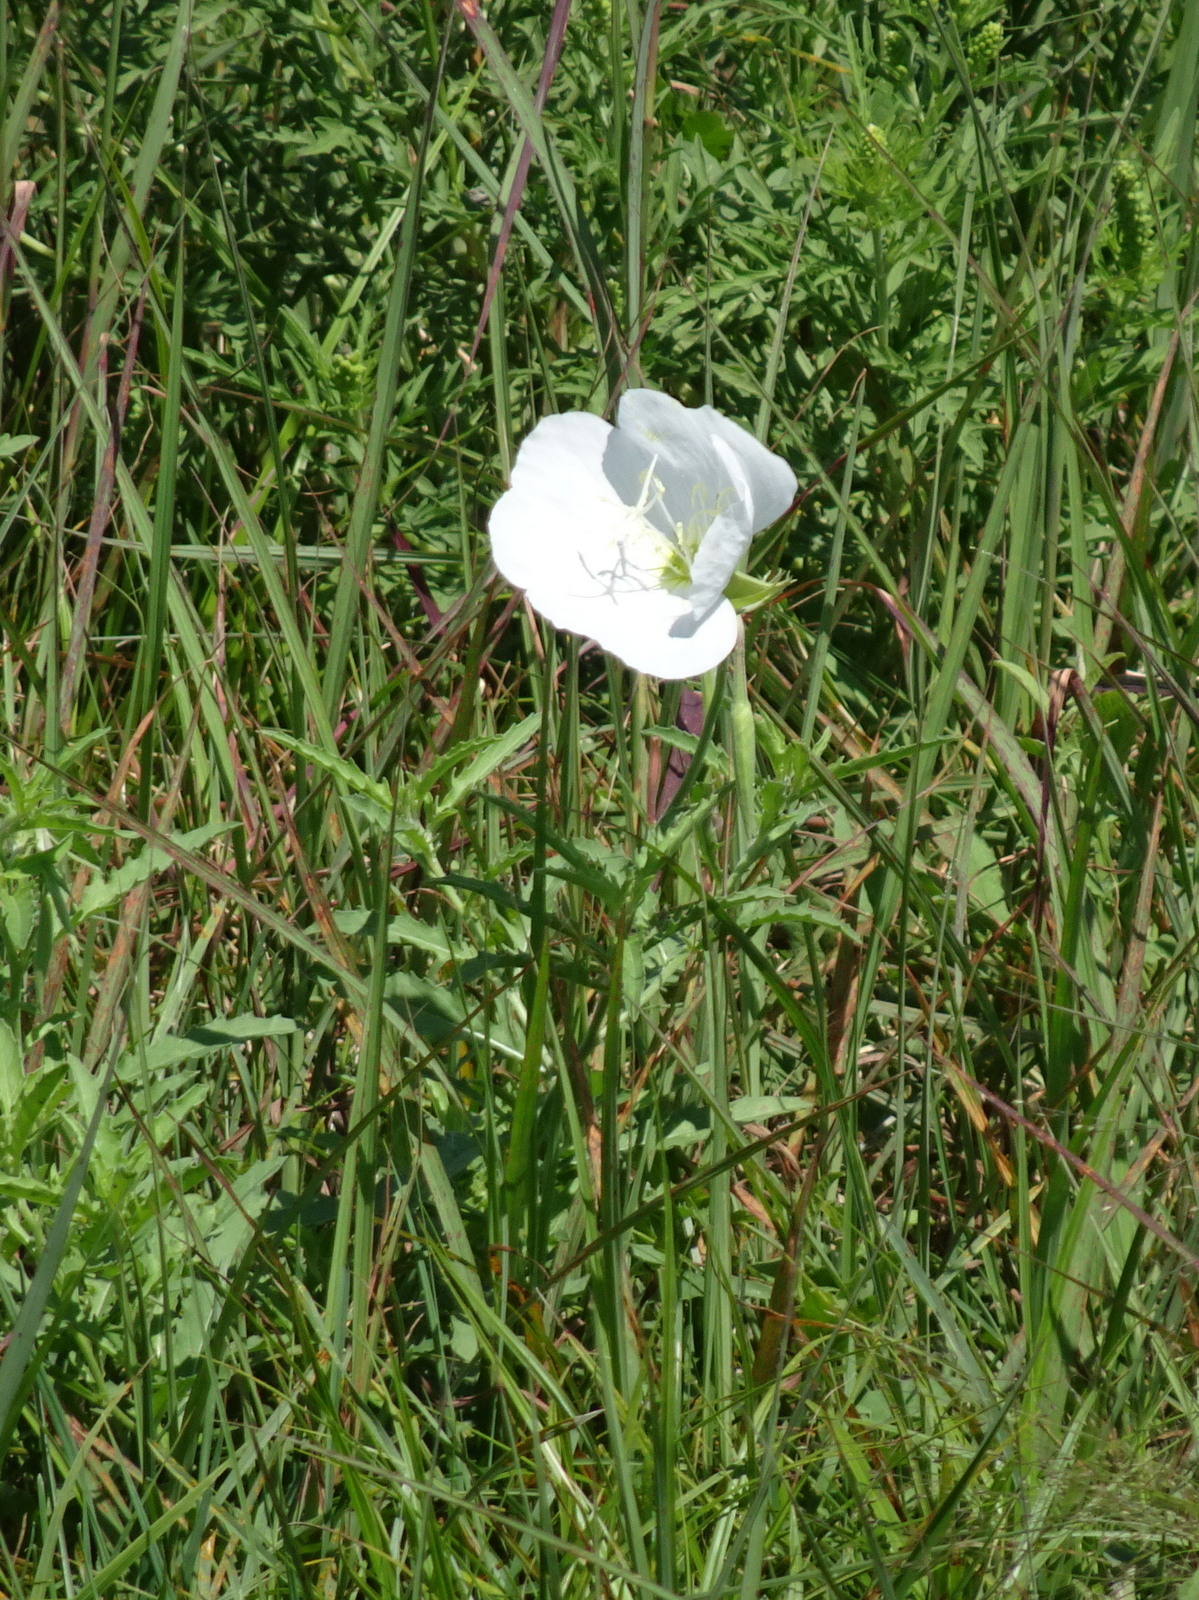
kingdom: Plantae
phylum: Tracheophyta
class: Magnoliopsida
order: Myrtales
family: Onagraceae
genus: Oenothera
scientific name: Oenothera speciosa
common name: White evening-primrose
